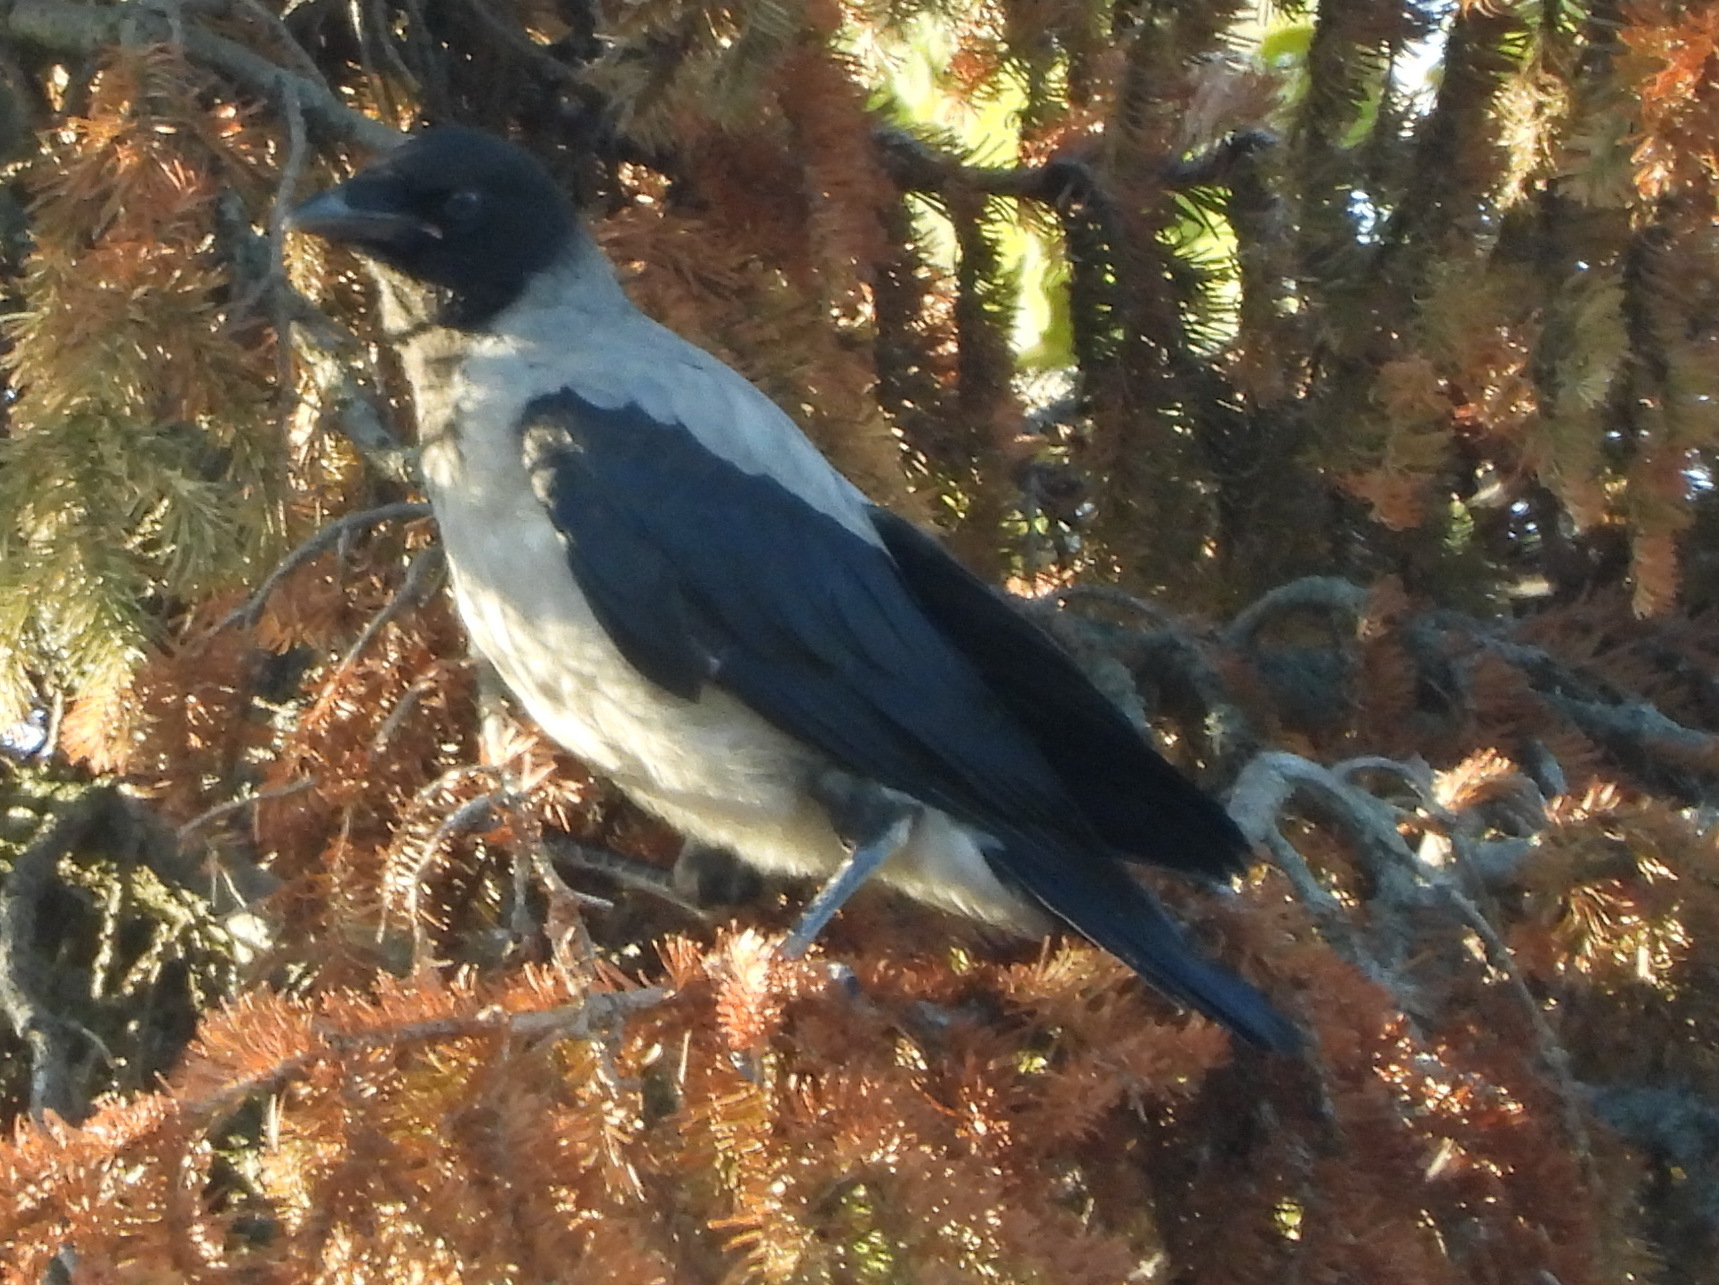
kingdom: Animalia
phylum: Chordata
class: Aves
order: Passeriformes
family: Corvidae
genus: Corvus
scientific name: Corvus cornix
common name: Hooded crow
